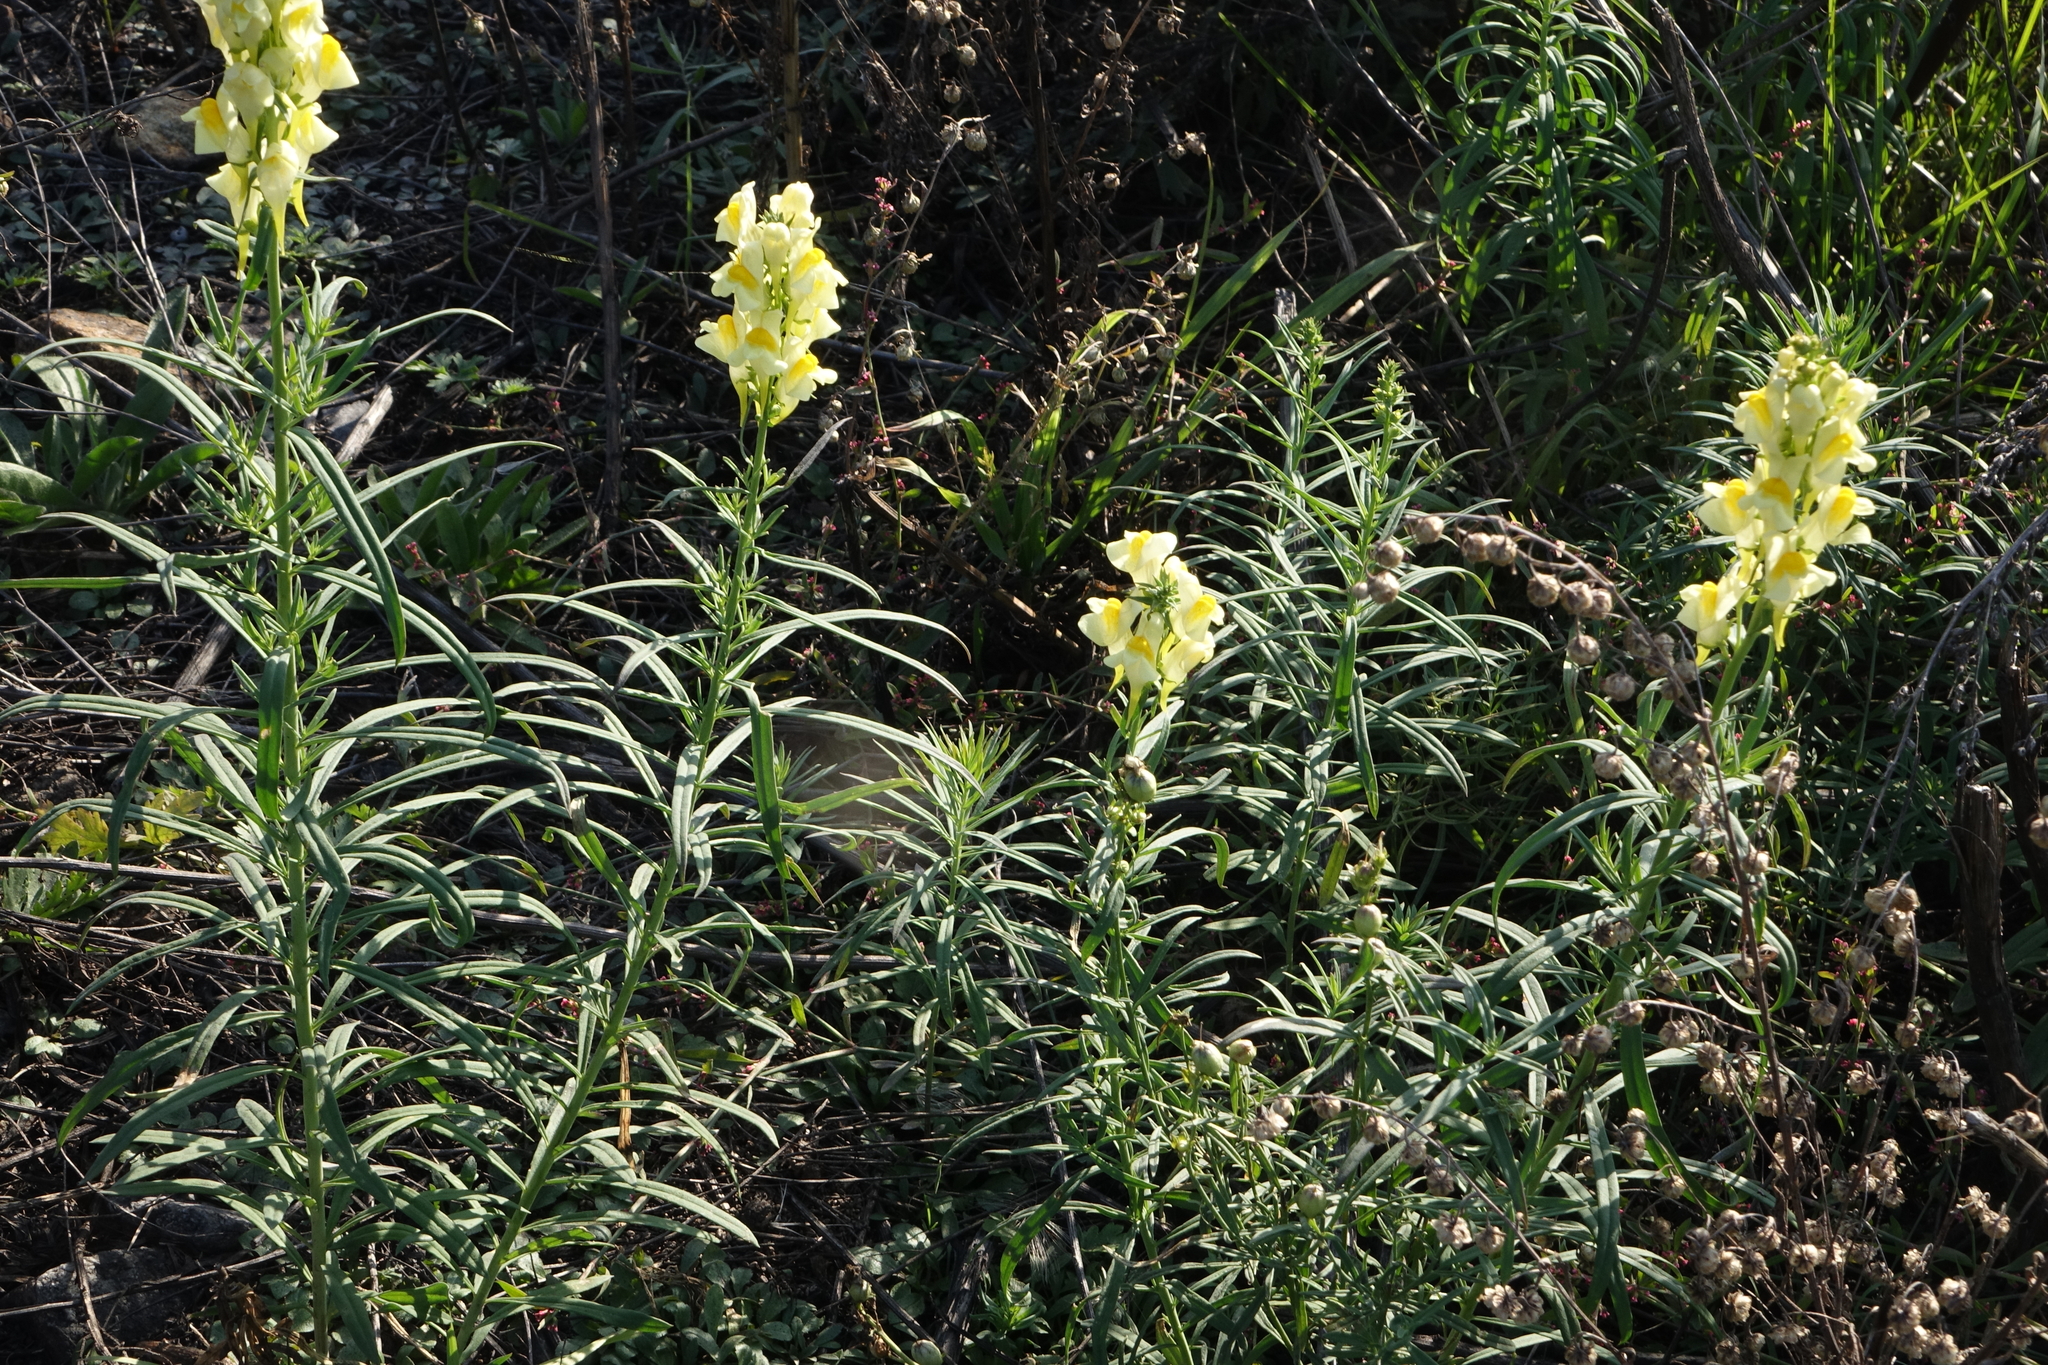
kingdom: Plantae
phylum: Tracheophyta
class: Magnoliopsida
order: Lamiales
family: Plantaginaceae
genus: Linaria
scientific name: Linaria vulgaris
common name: Butter and eggs
